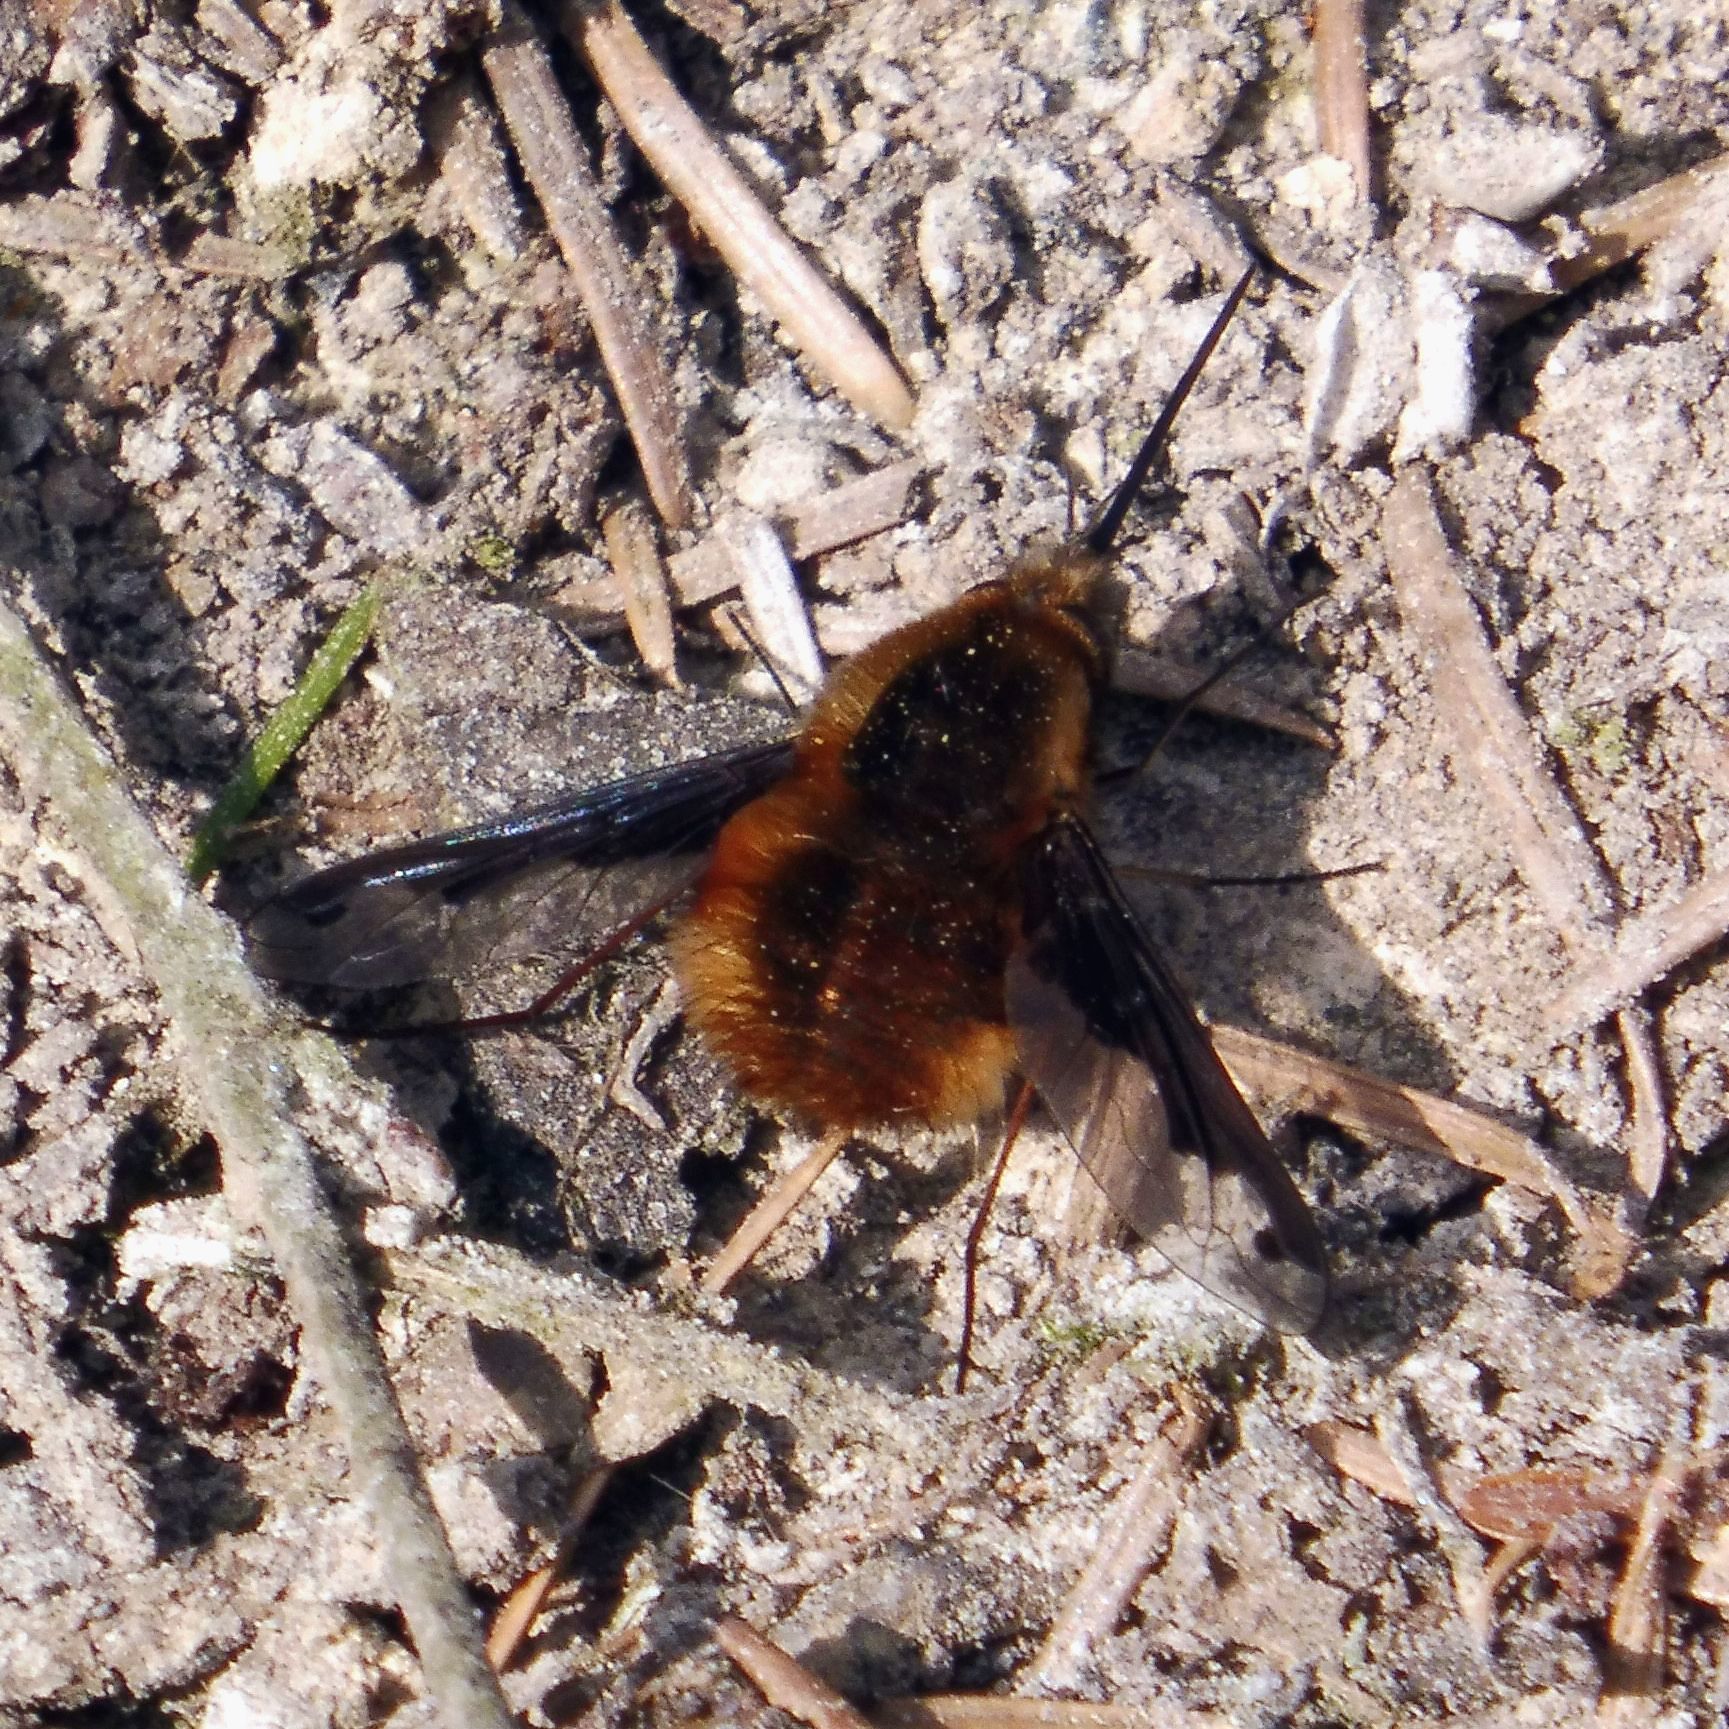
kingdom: Animalia
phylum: Arthropoda
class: Insecta
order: Diptera
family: Bombyliidae
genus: Bombylius
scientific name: Bombylius major
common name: Bee fly
